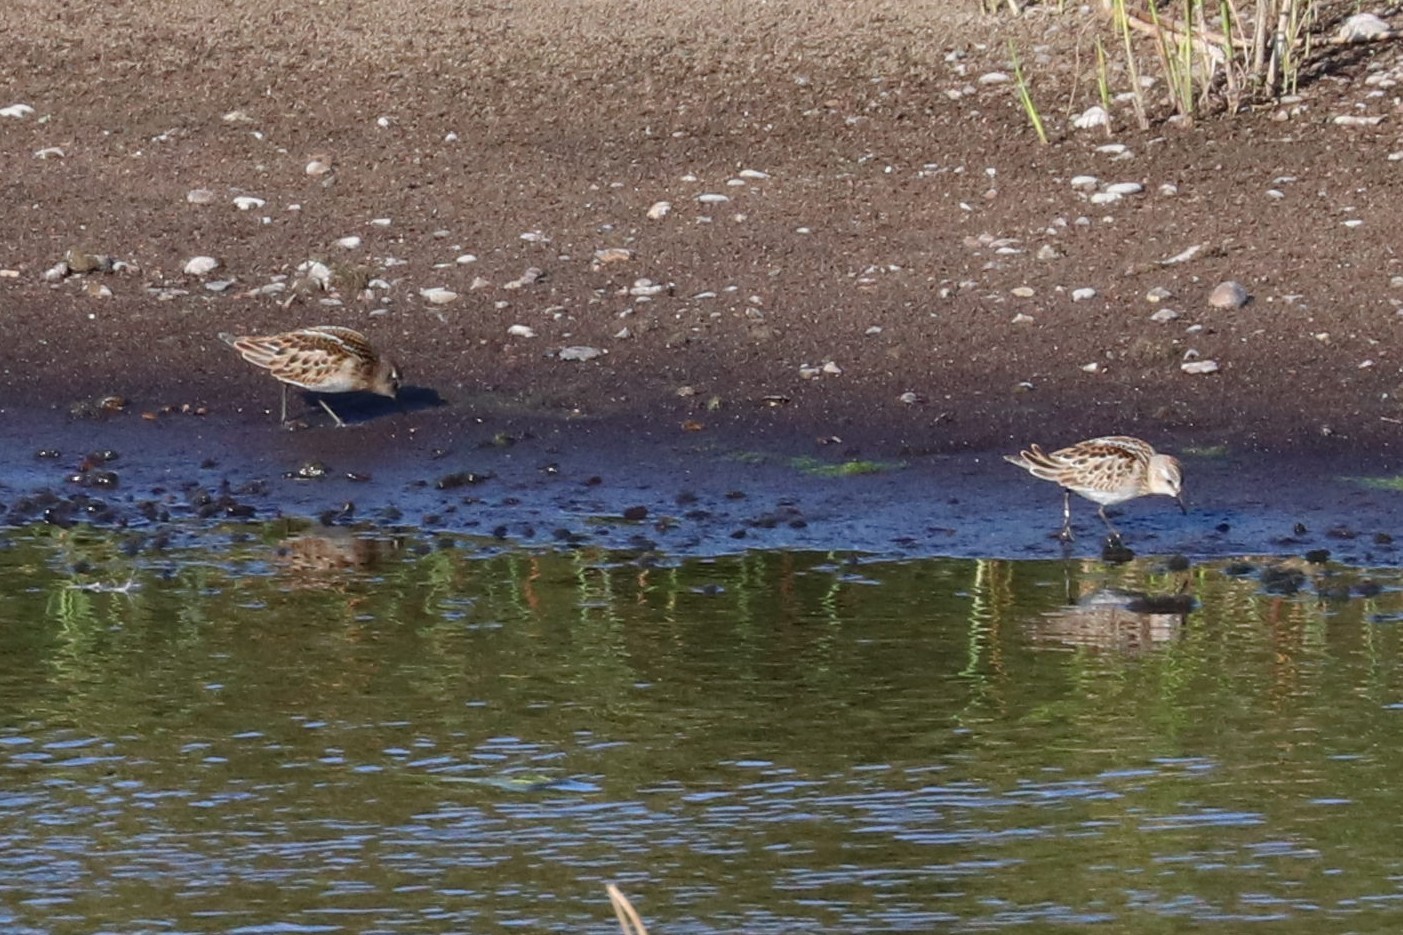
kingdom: Animalia
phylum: Chordata
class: Aves
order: Charadriiformes
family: Scolopacidae
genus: Calidris
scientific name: Calidris minuta
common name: Little stint
